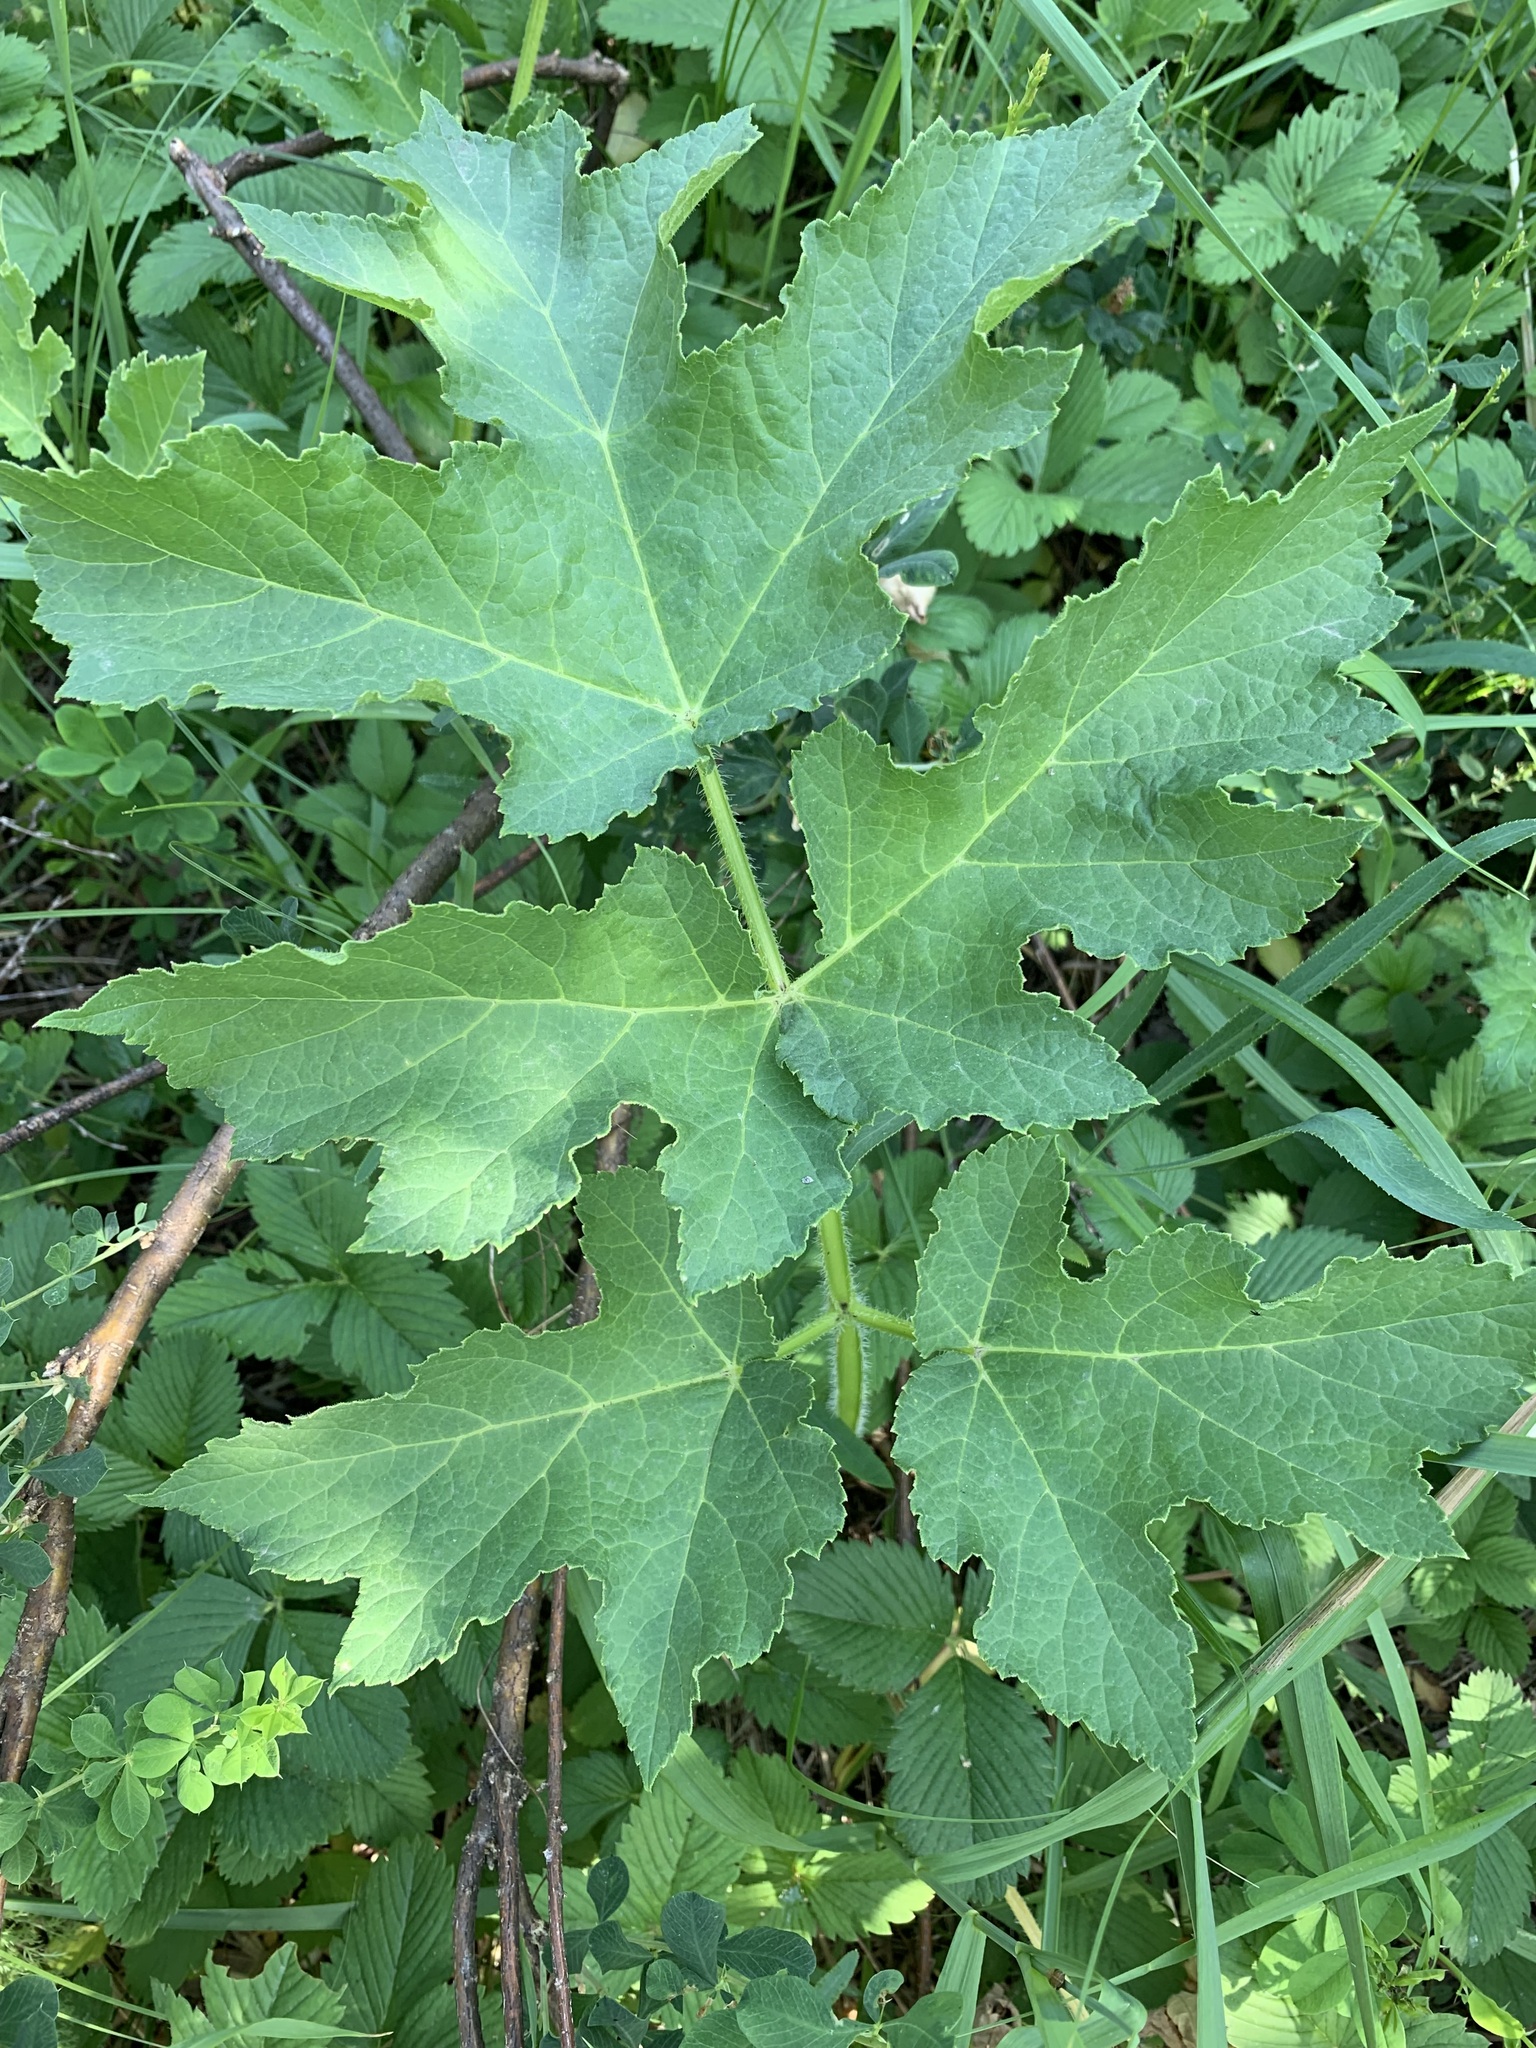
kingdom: Plantae
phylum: Tracheophyta
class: Magnoliopsida
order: Apiales
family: Apiaceae
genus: Heracleum
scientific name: Heracleum sphondylium
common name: Hogweed
